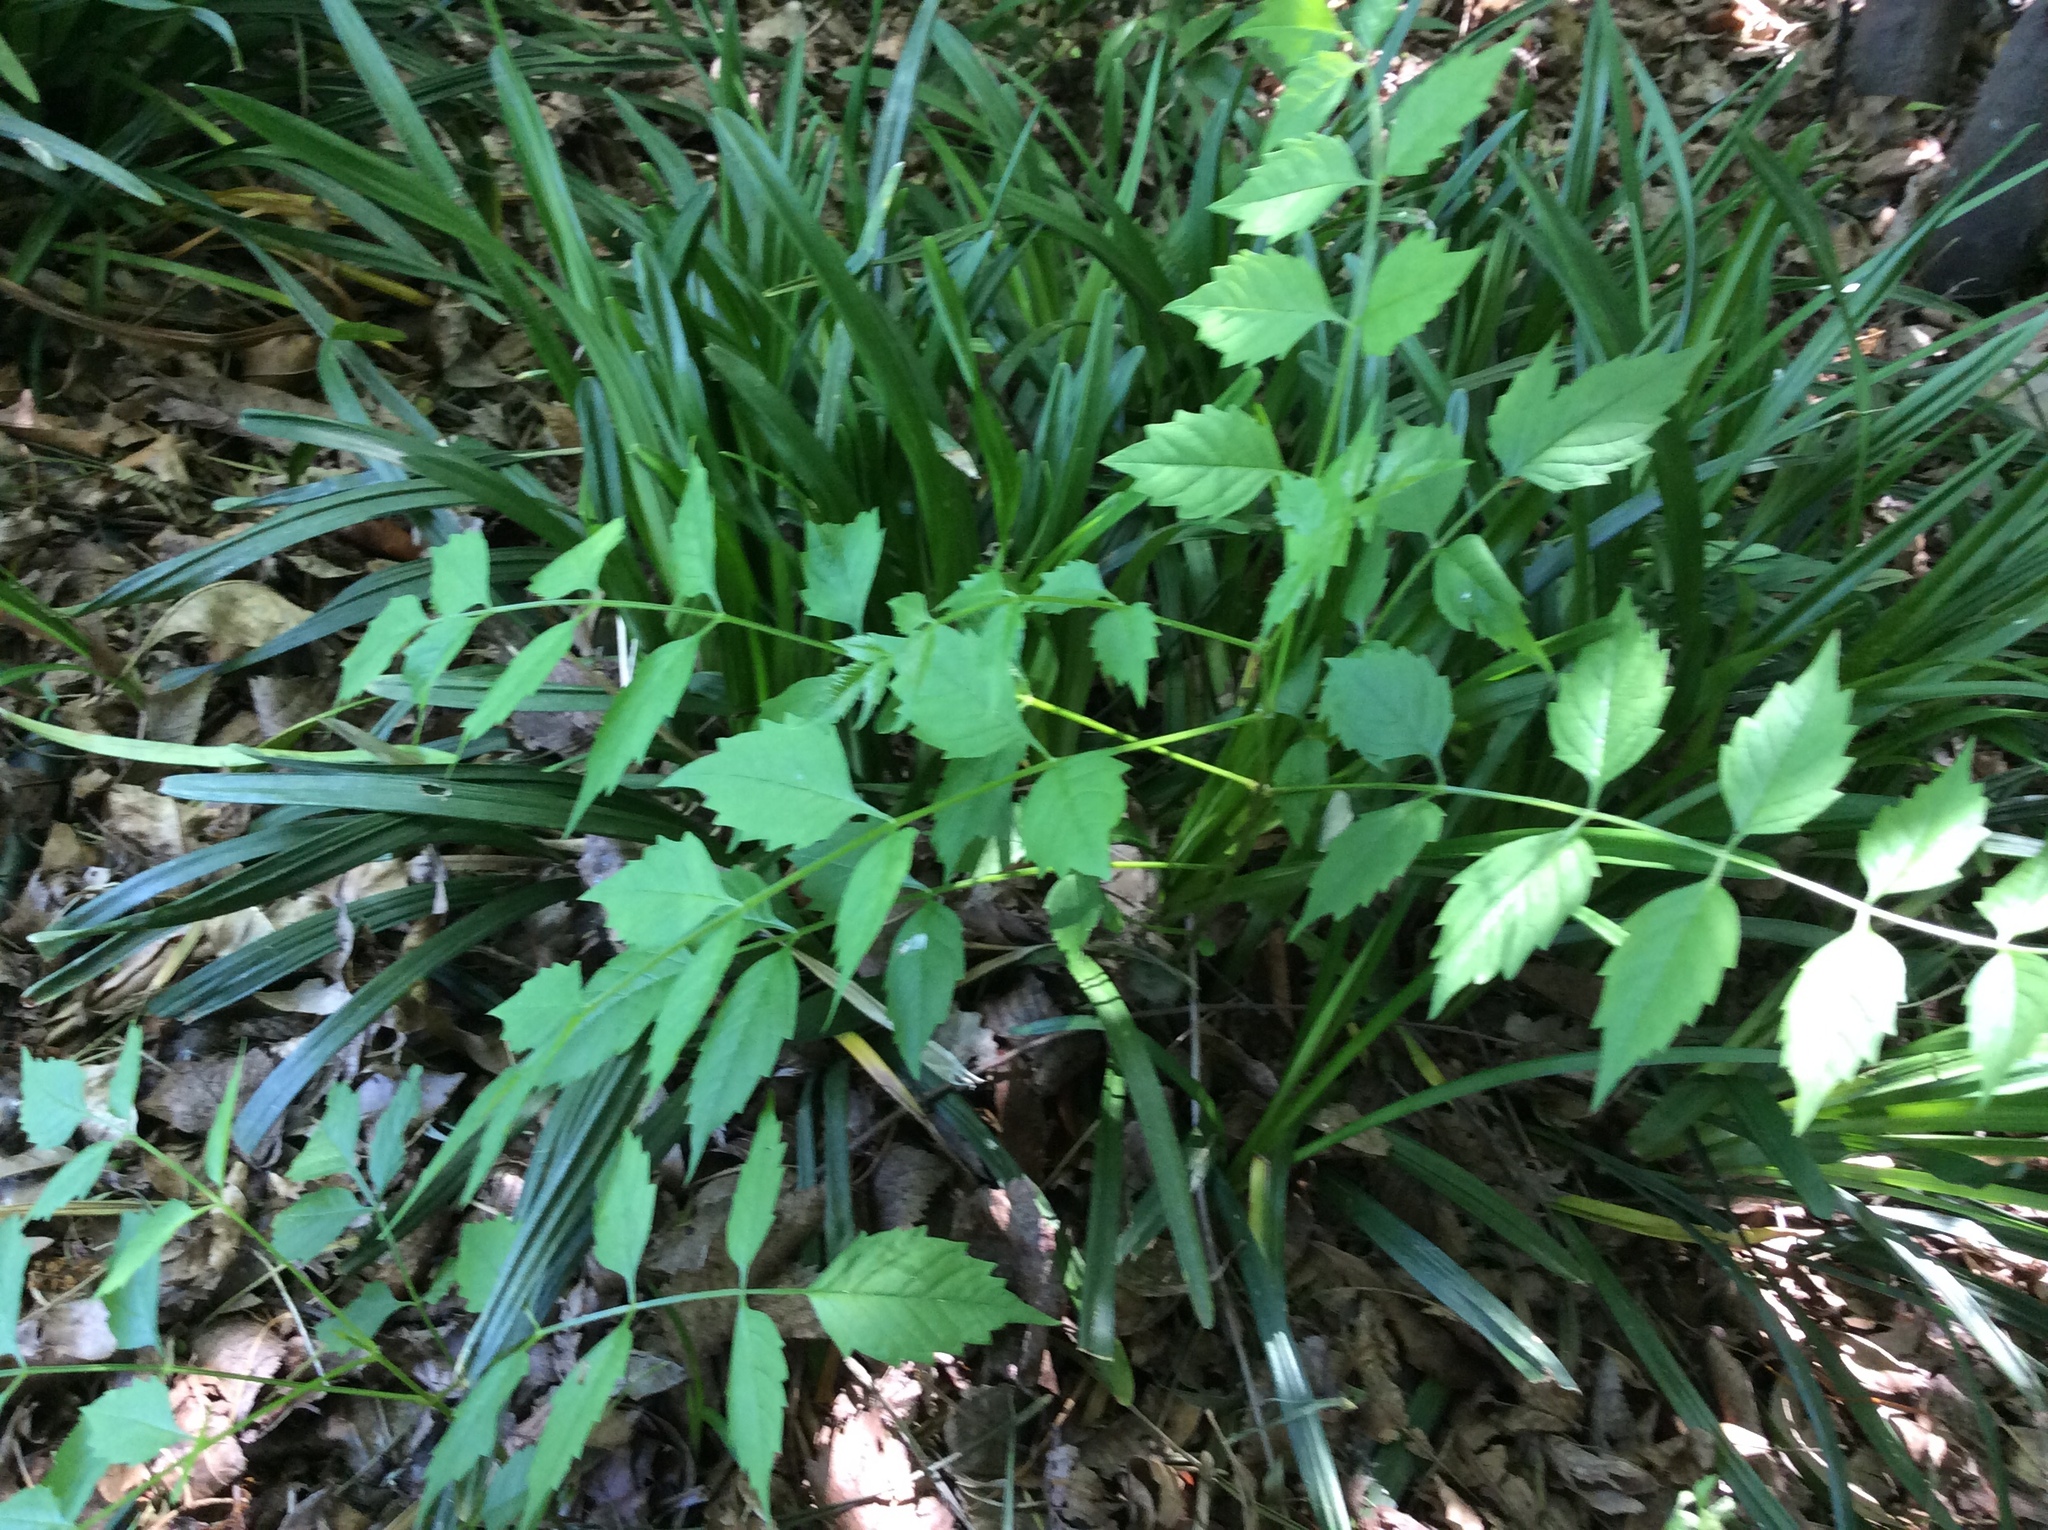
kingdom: Plantae
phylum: Tracheophyta
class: Magnoliopsida
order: Lamiales
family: Bignoniaceae
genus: Campsis
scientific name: Campsis radicans
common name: Trumpet-creeper
